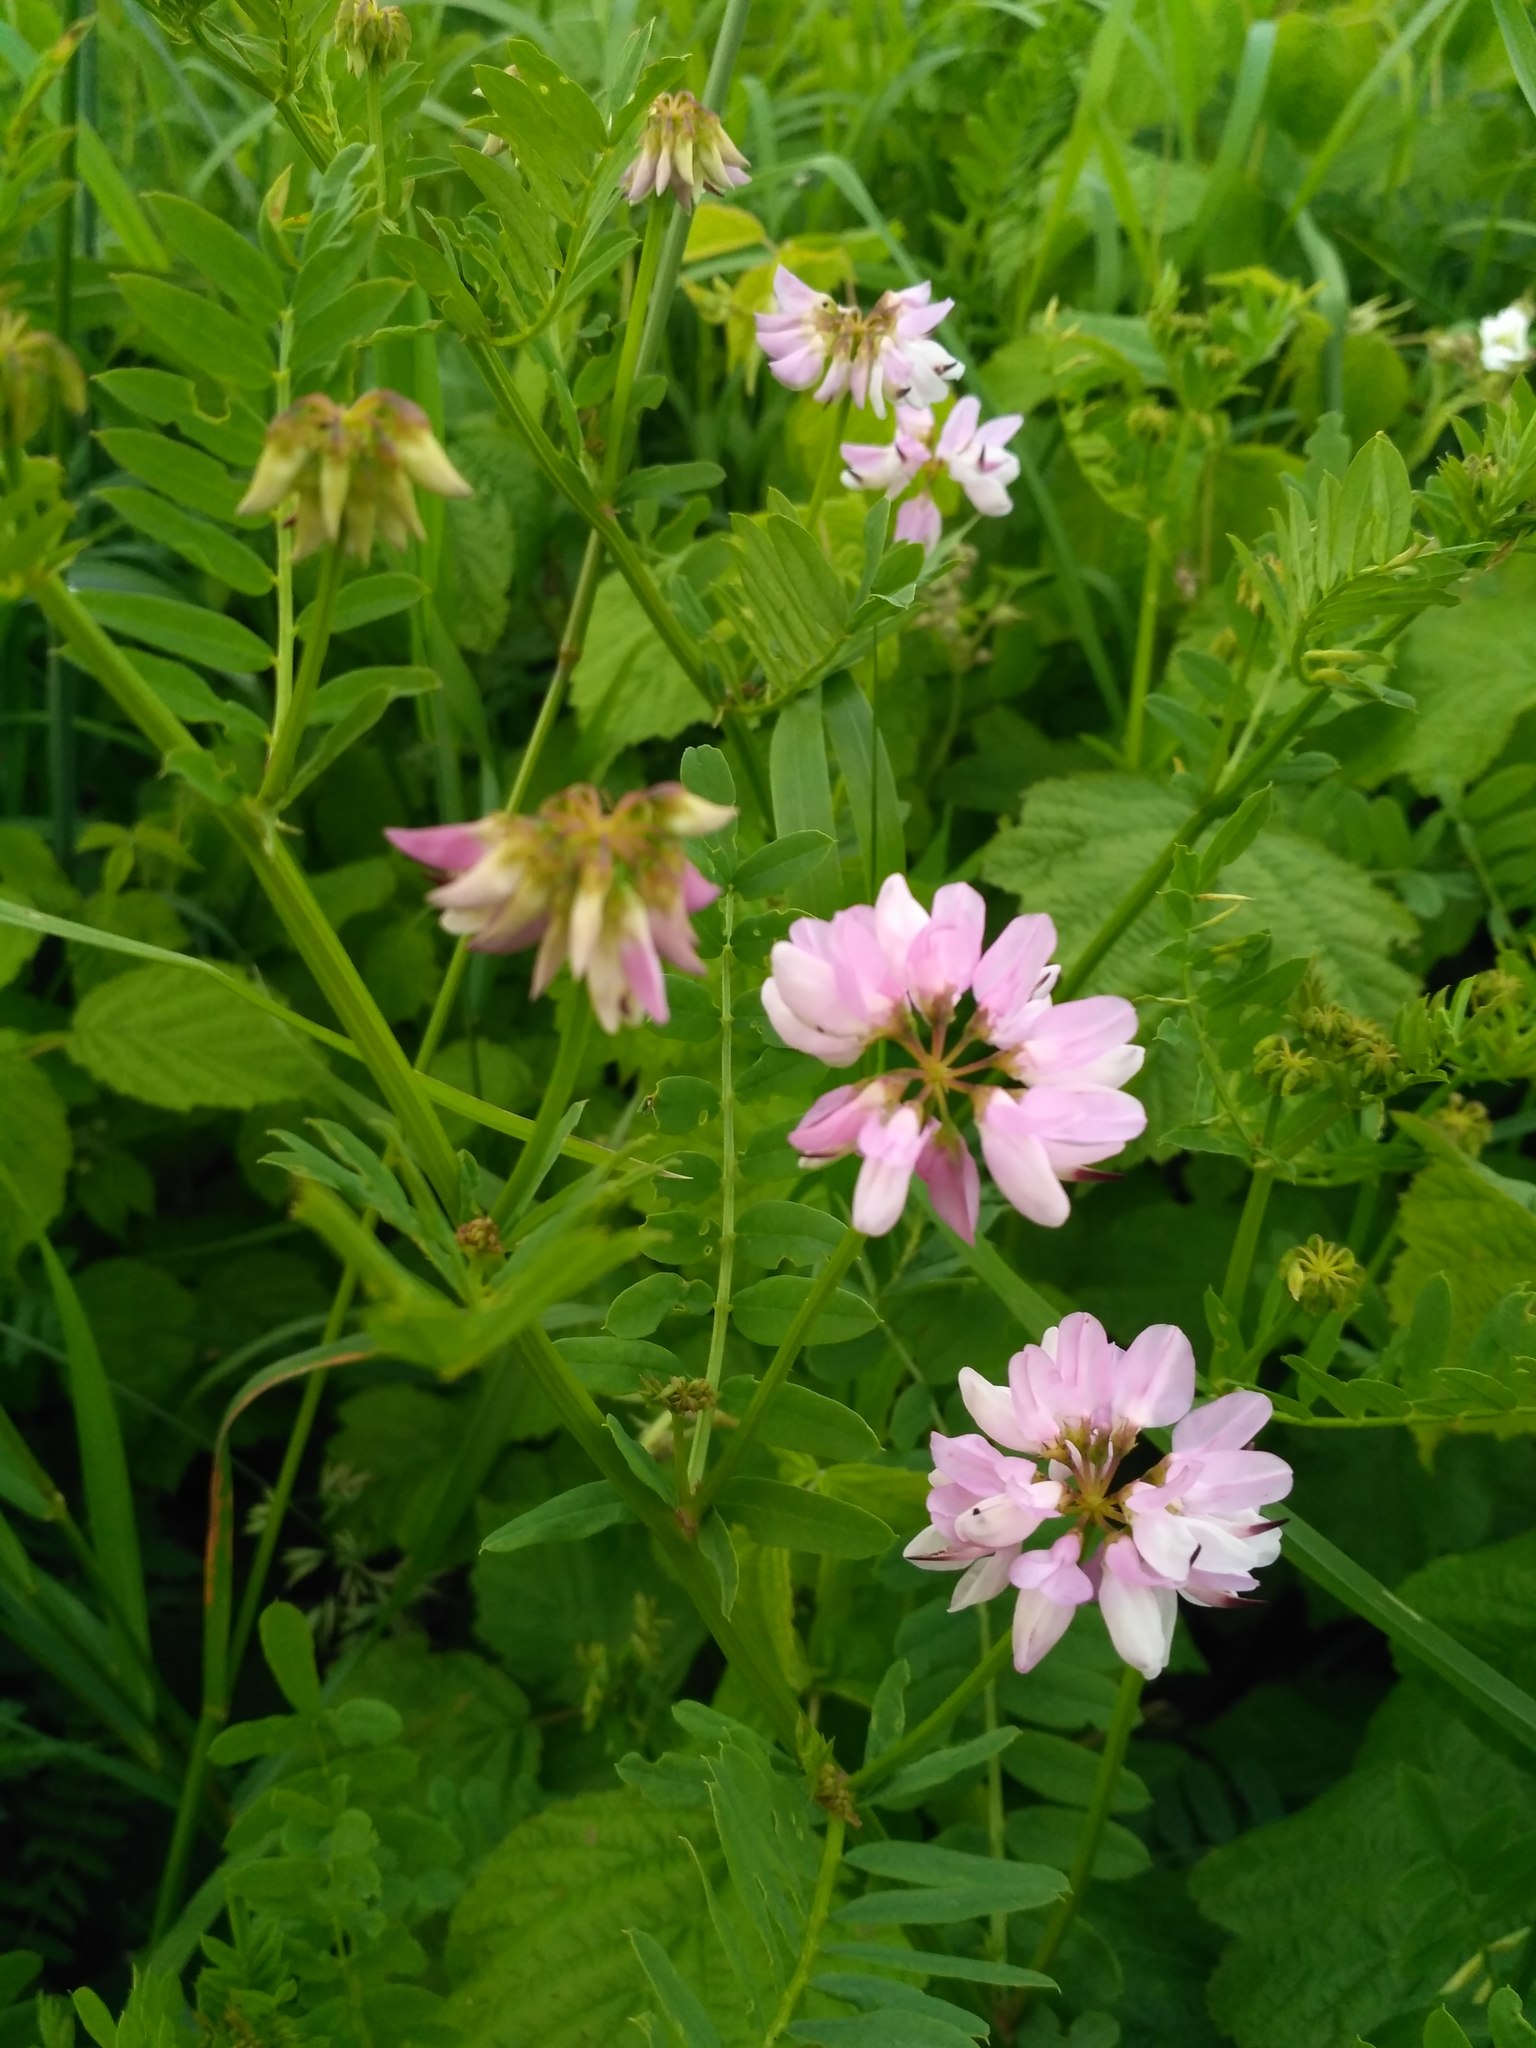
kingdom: Plantae
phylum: Tracheophyta
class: Magnoliopsida
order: Fabales
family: Fabaceae
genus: Coronilla
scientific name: Coronilla varia
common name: Crownvetch
